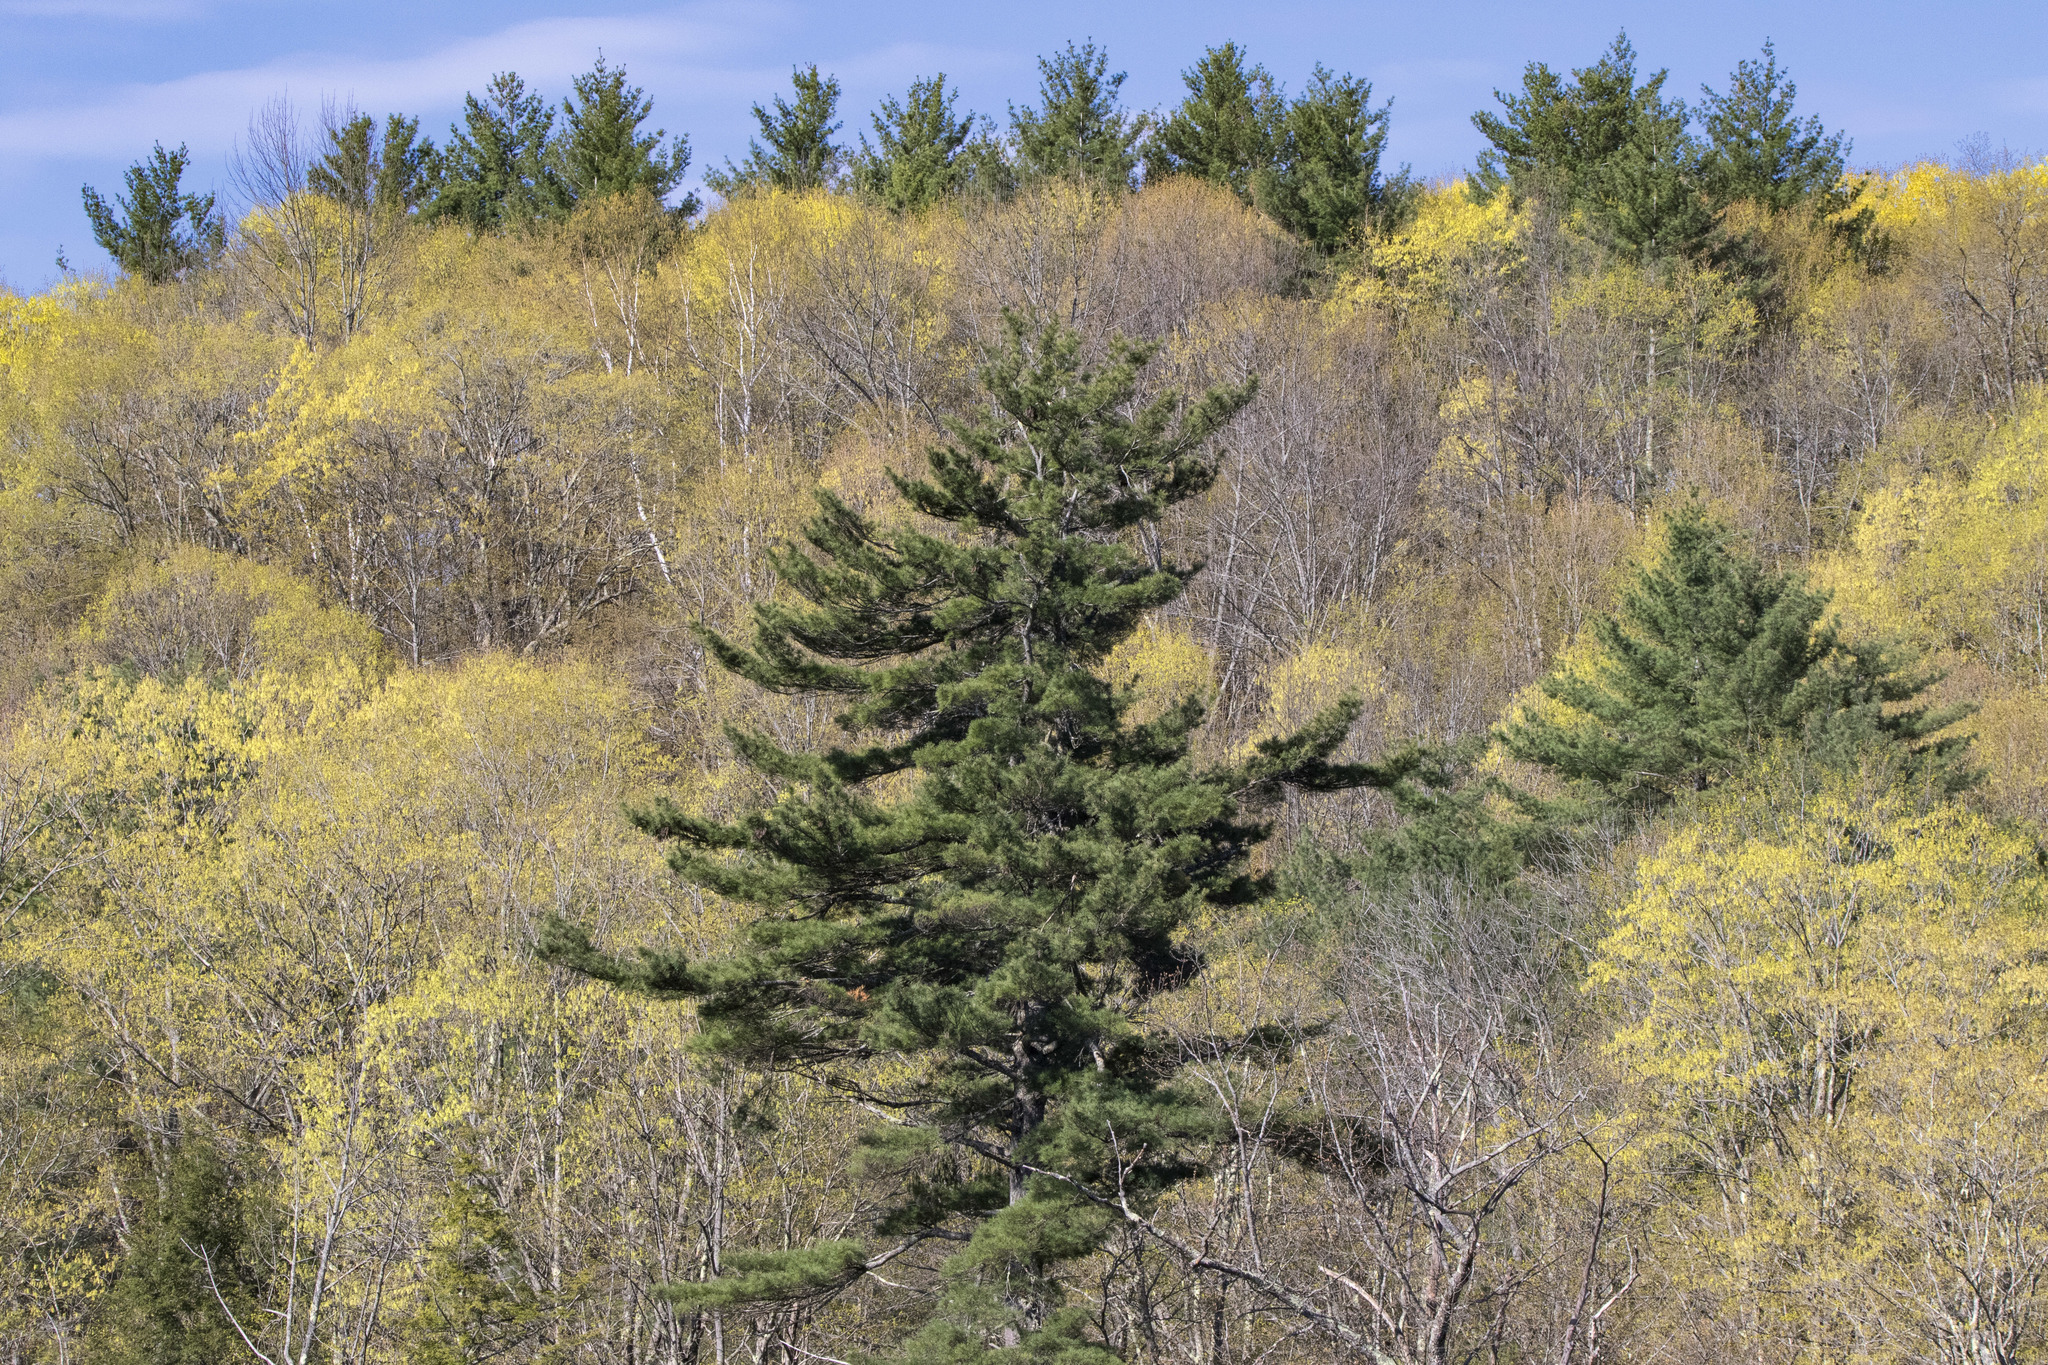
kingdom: Plantae
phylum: Tracheophyta
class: Pinopsida
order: Pinales
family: Pinaceae
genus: Pinus
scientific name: Pinus strobus
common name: Weymouth pine
